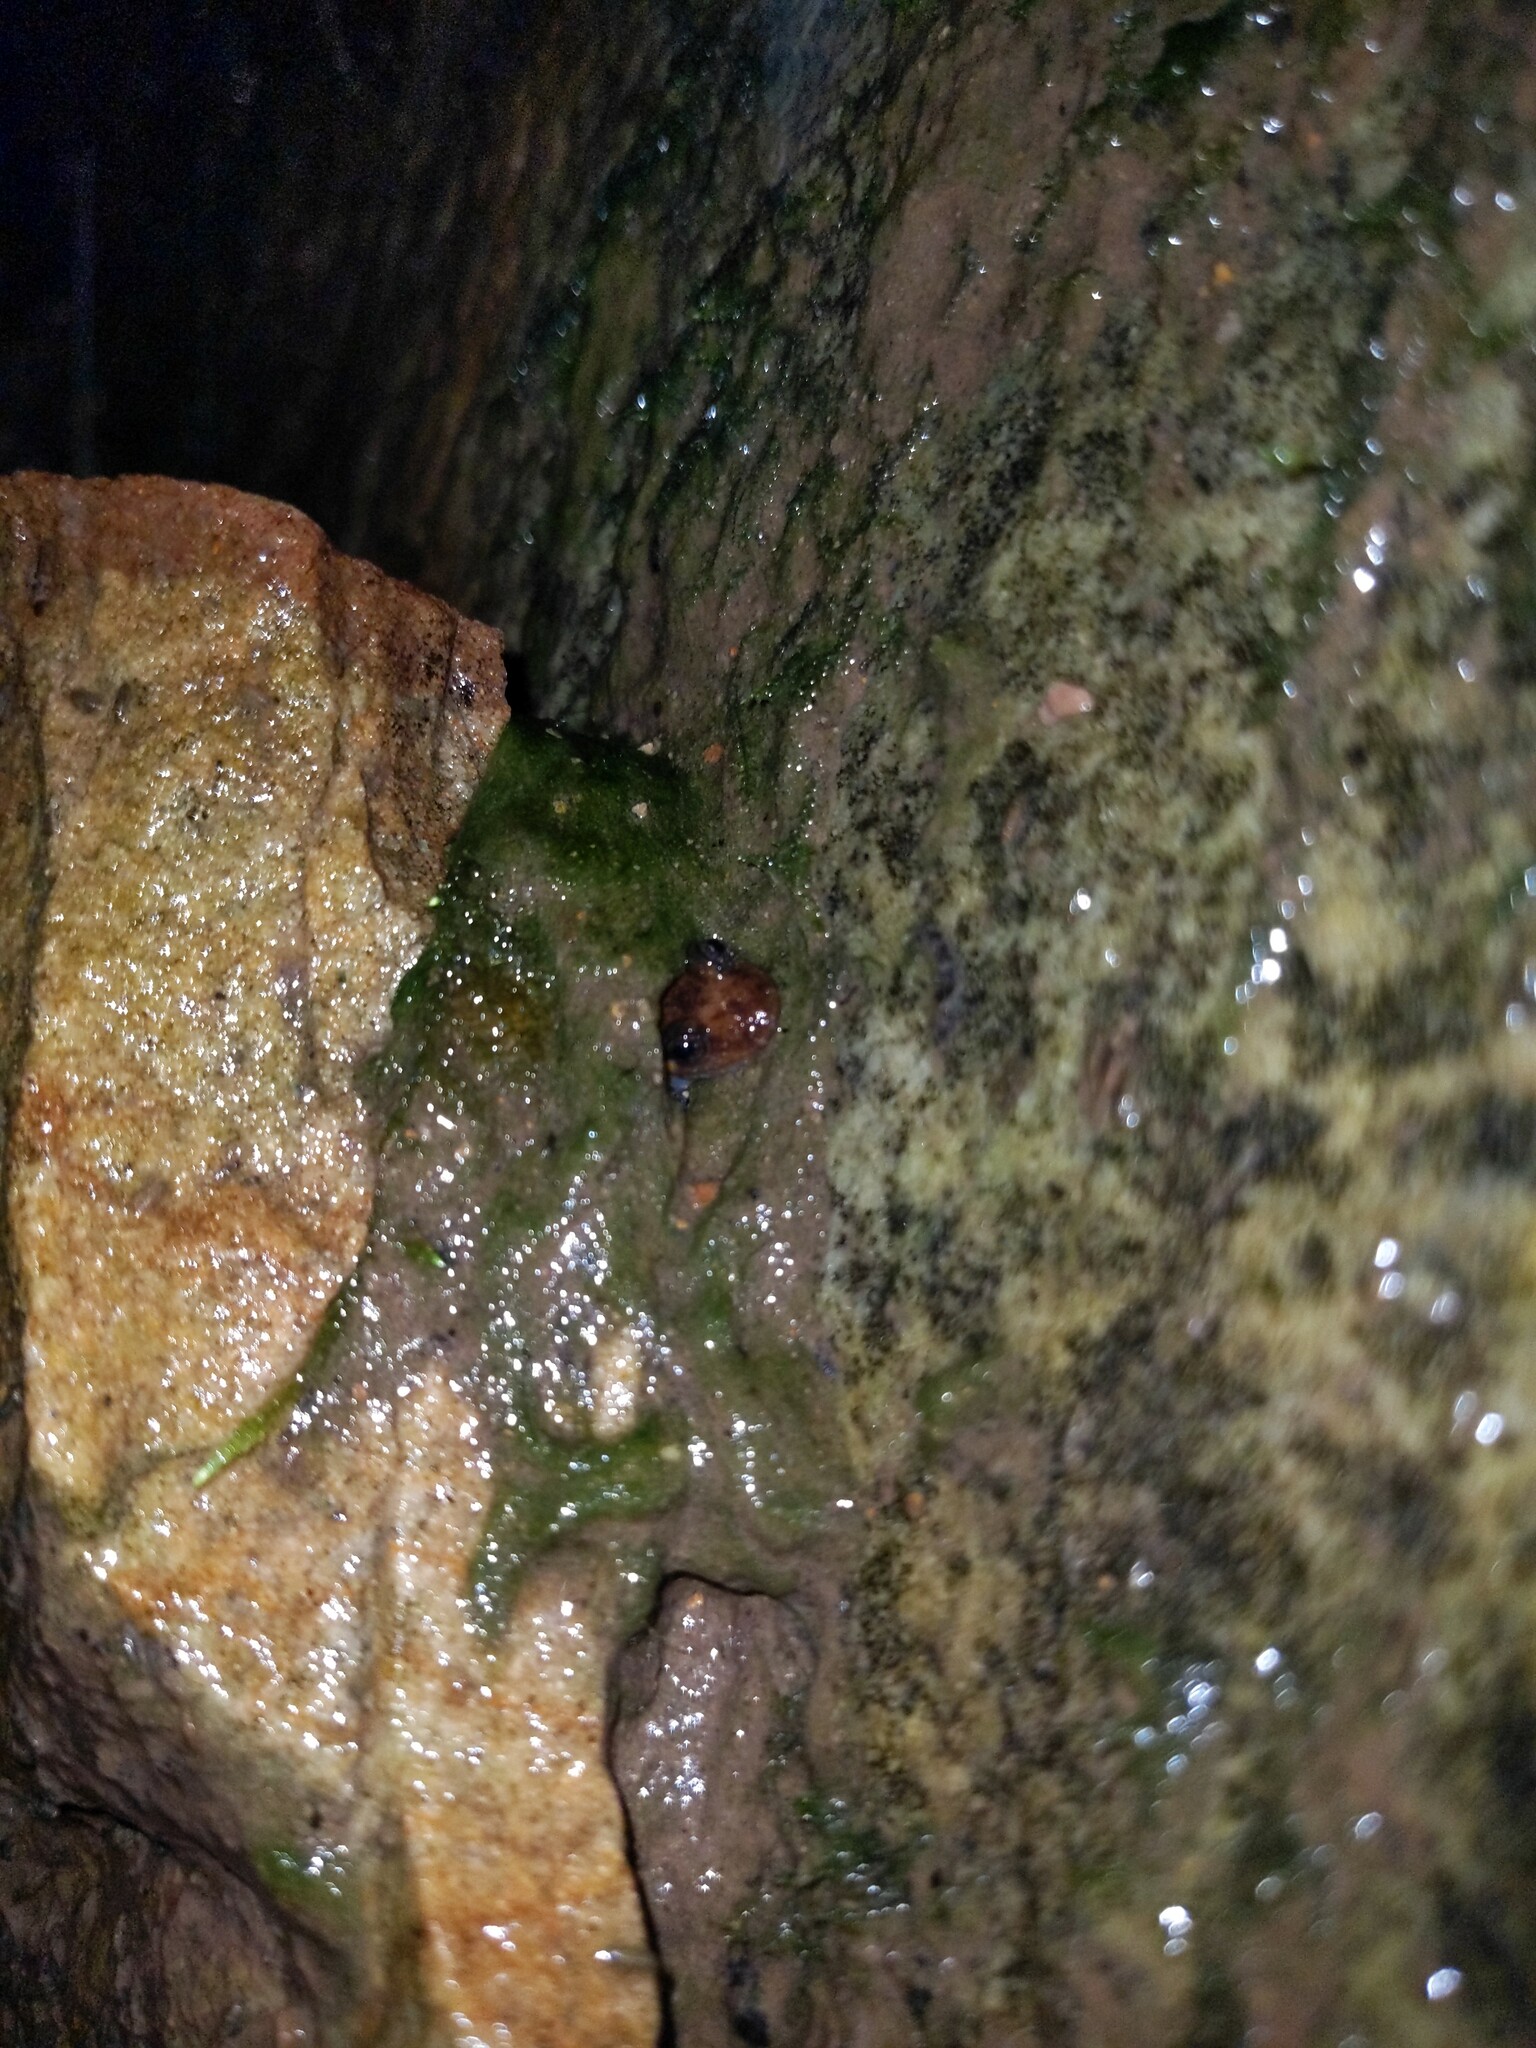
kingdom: Animalia
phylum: Chordata
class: Amphibia
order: Caudata
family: Plethodontidae
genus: Desmognathus
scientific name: Desmognathus monticola
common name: Seal salamander
